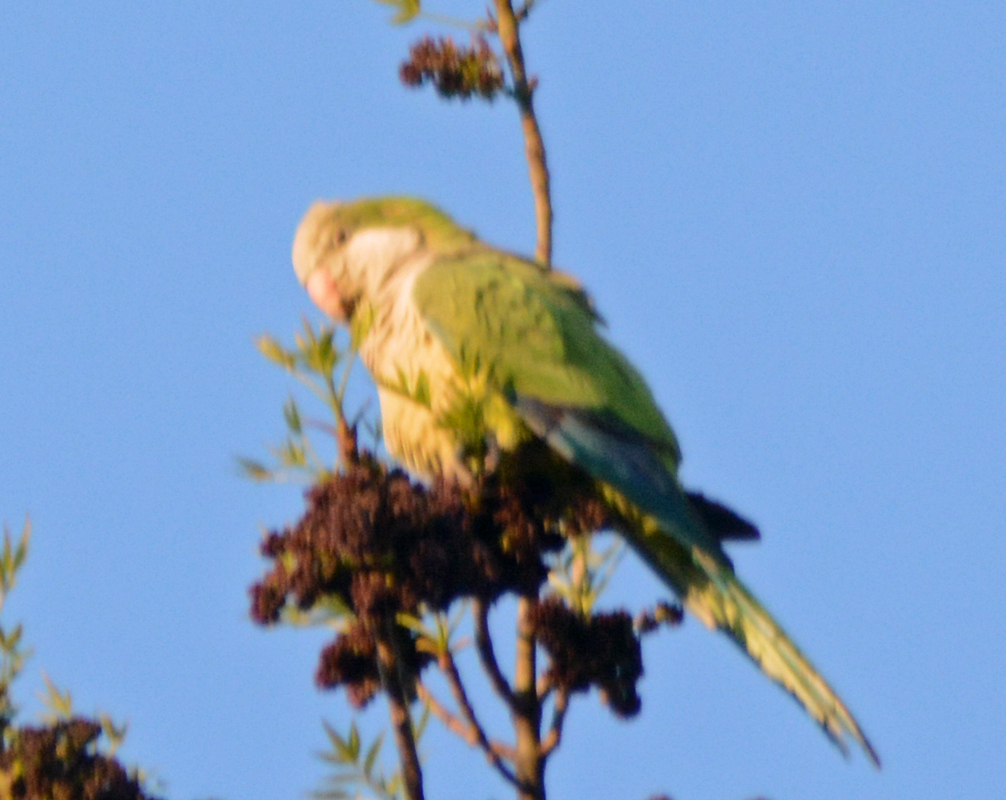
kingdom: Animalia
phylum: Chordata
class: Aves
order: Psittaciformes
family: Psittacidae
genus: Myiopsitta
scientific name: Myiopsitta monachus
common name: Monk parakeet
